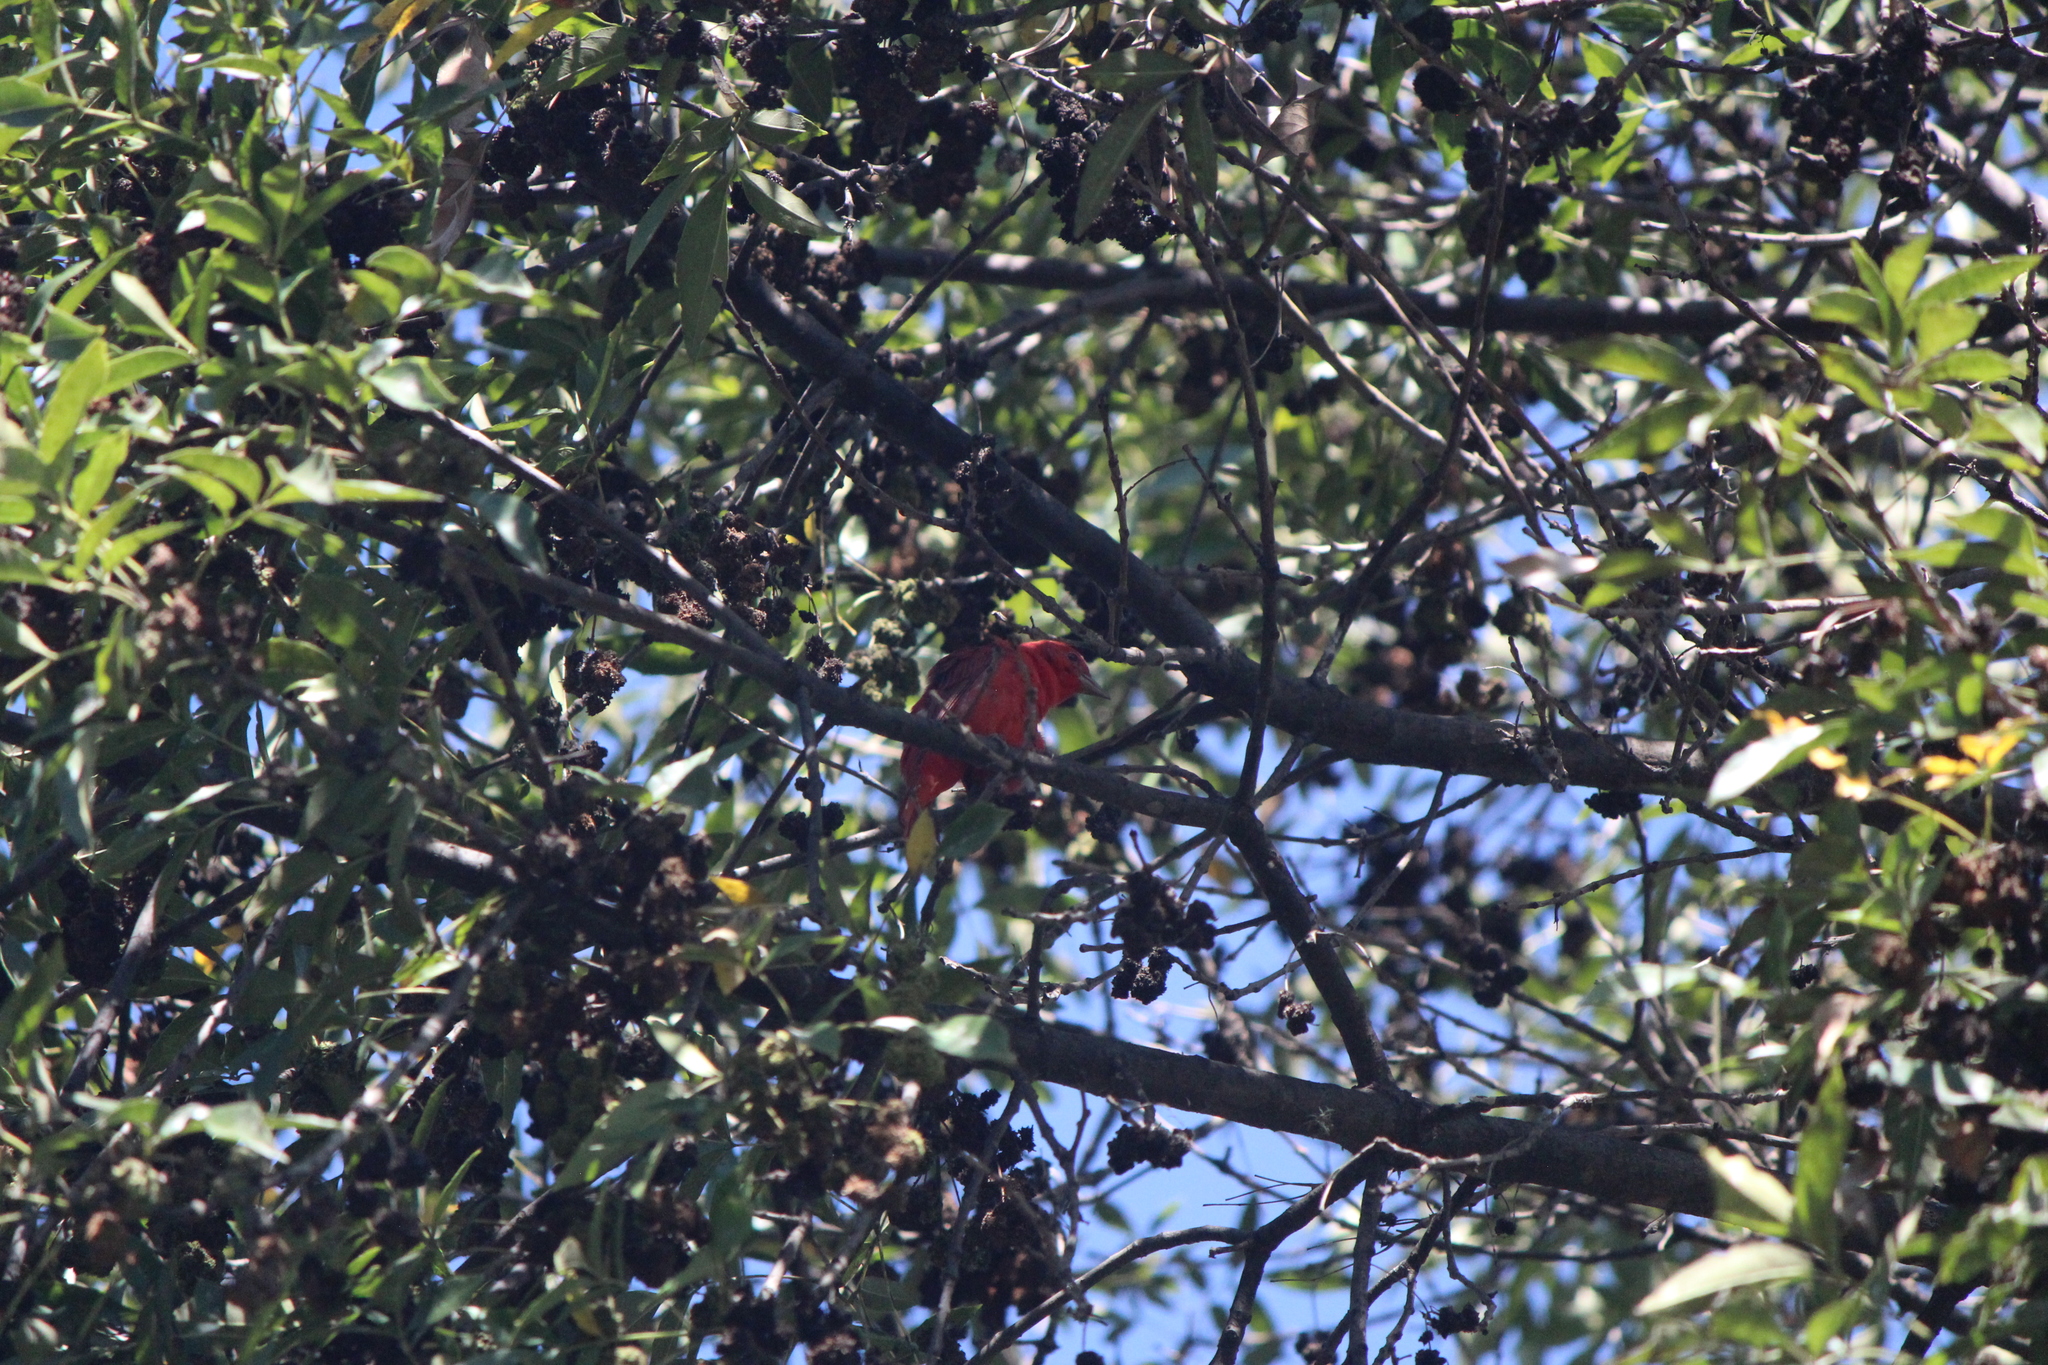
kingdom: Animalia
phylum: Chordata
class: Aves
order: Passeriformes
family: Cardinalidae
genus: Piranga
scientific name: Piranga flava
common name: Red tanager
